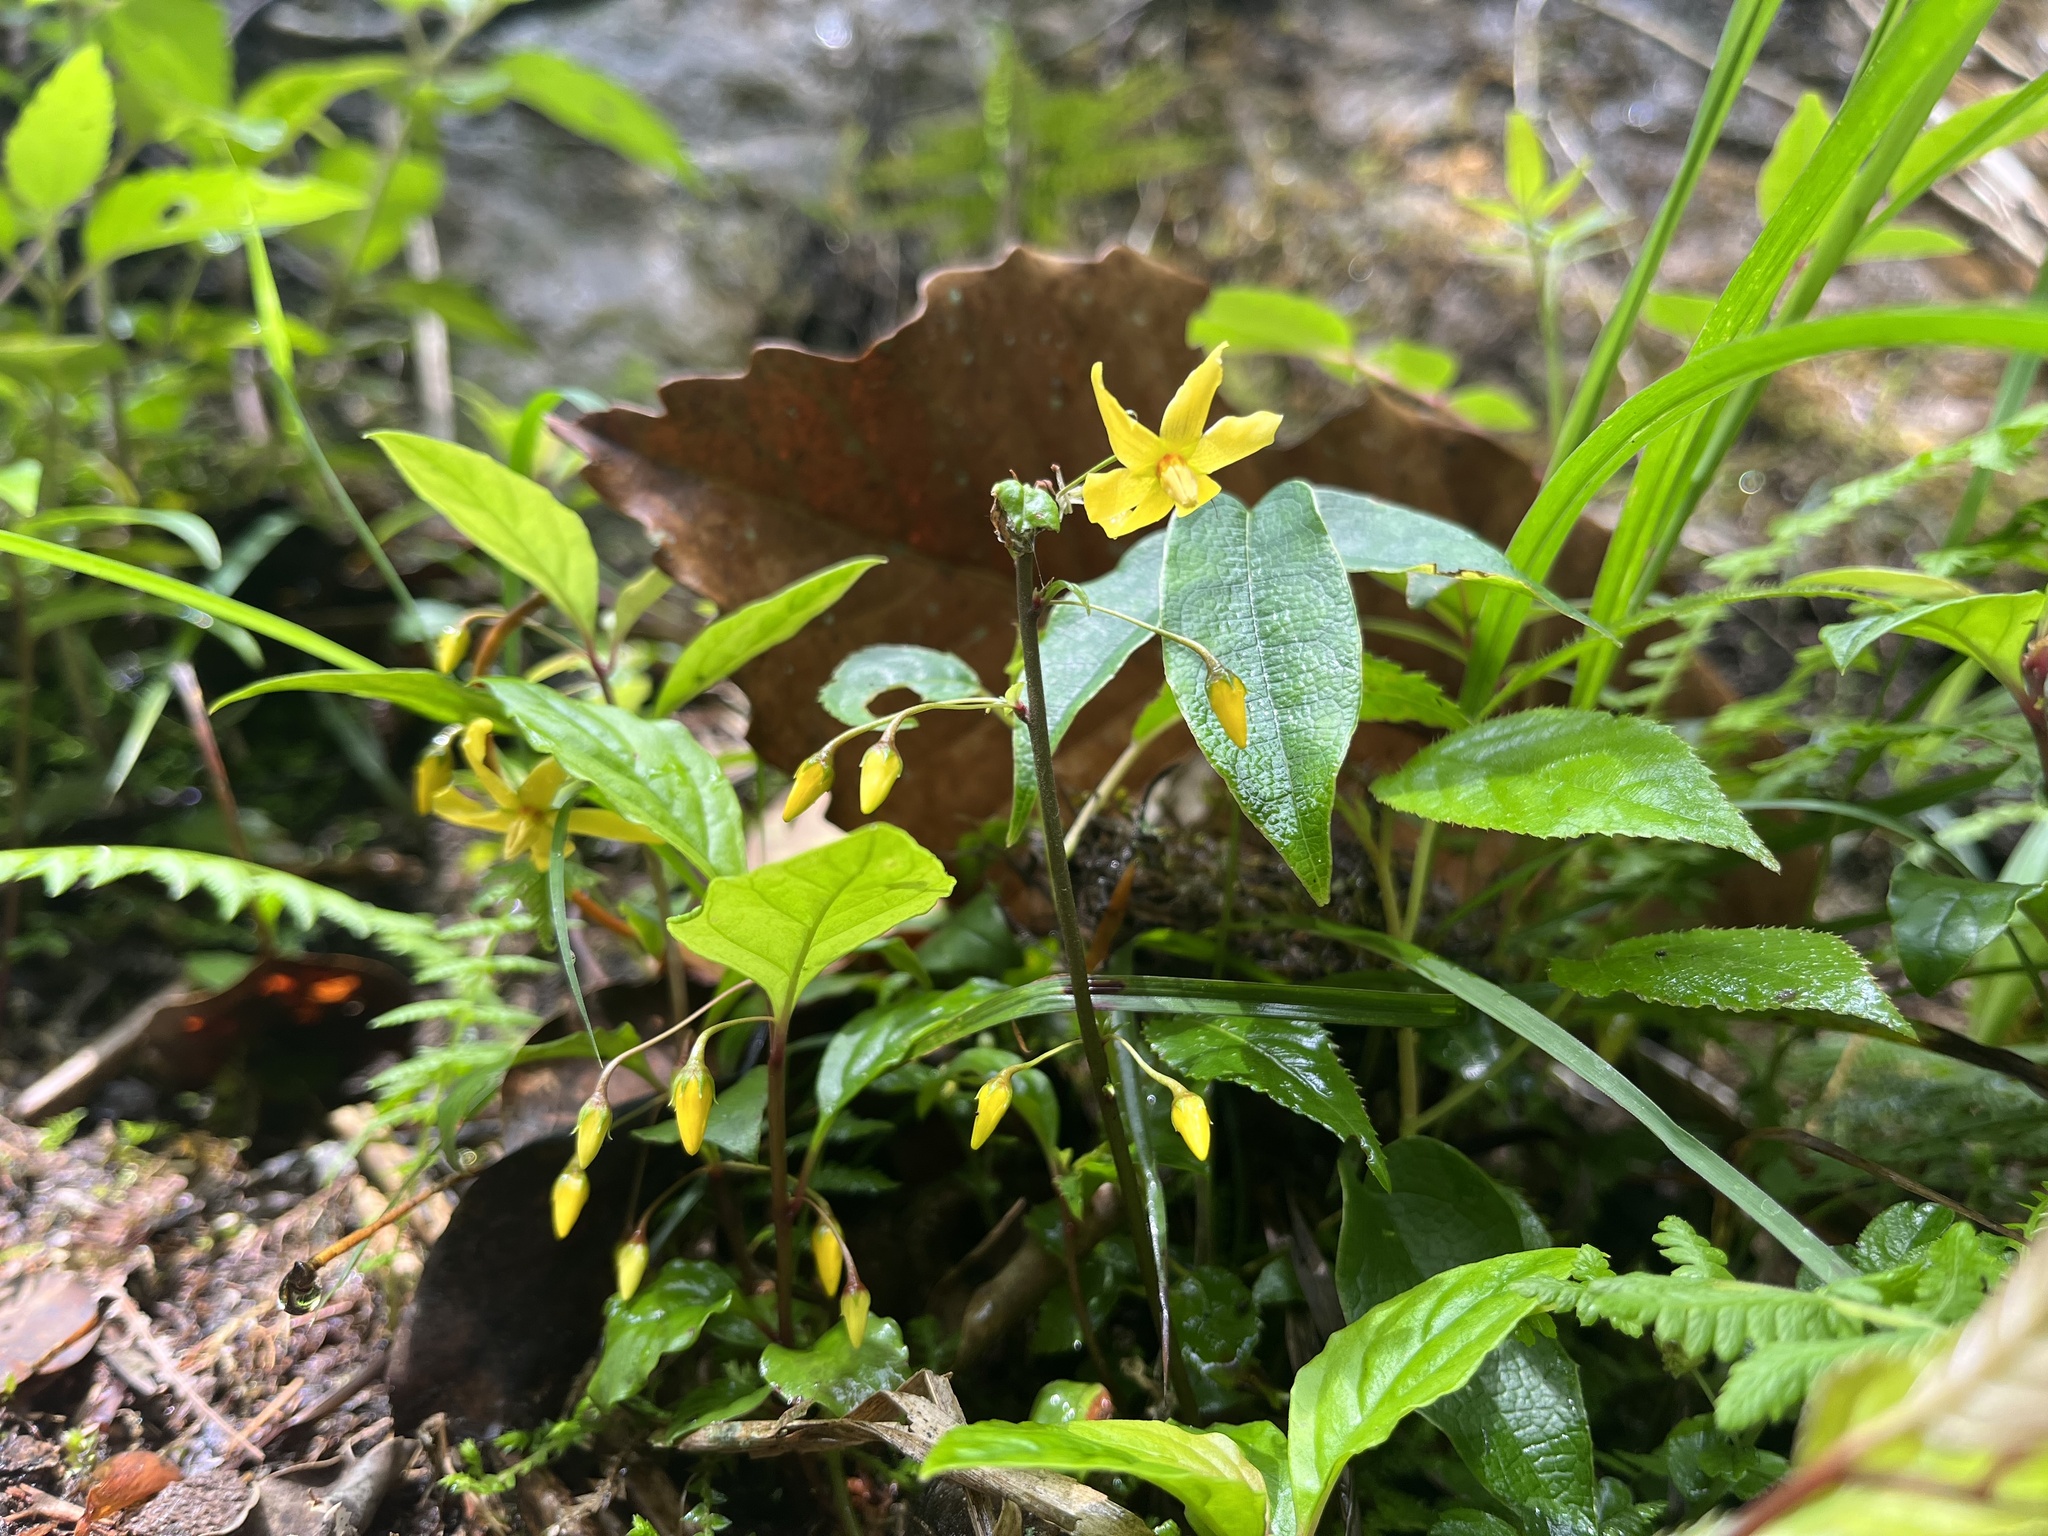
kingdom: Plantae
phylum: Tracheophyta
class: Magnoliopsida
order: Ericales
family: Primulaceae
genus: Lysimachia
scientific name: Lysimachia ardisioides
